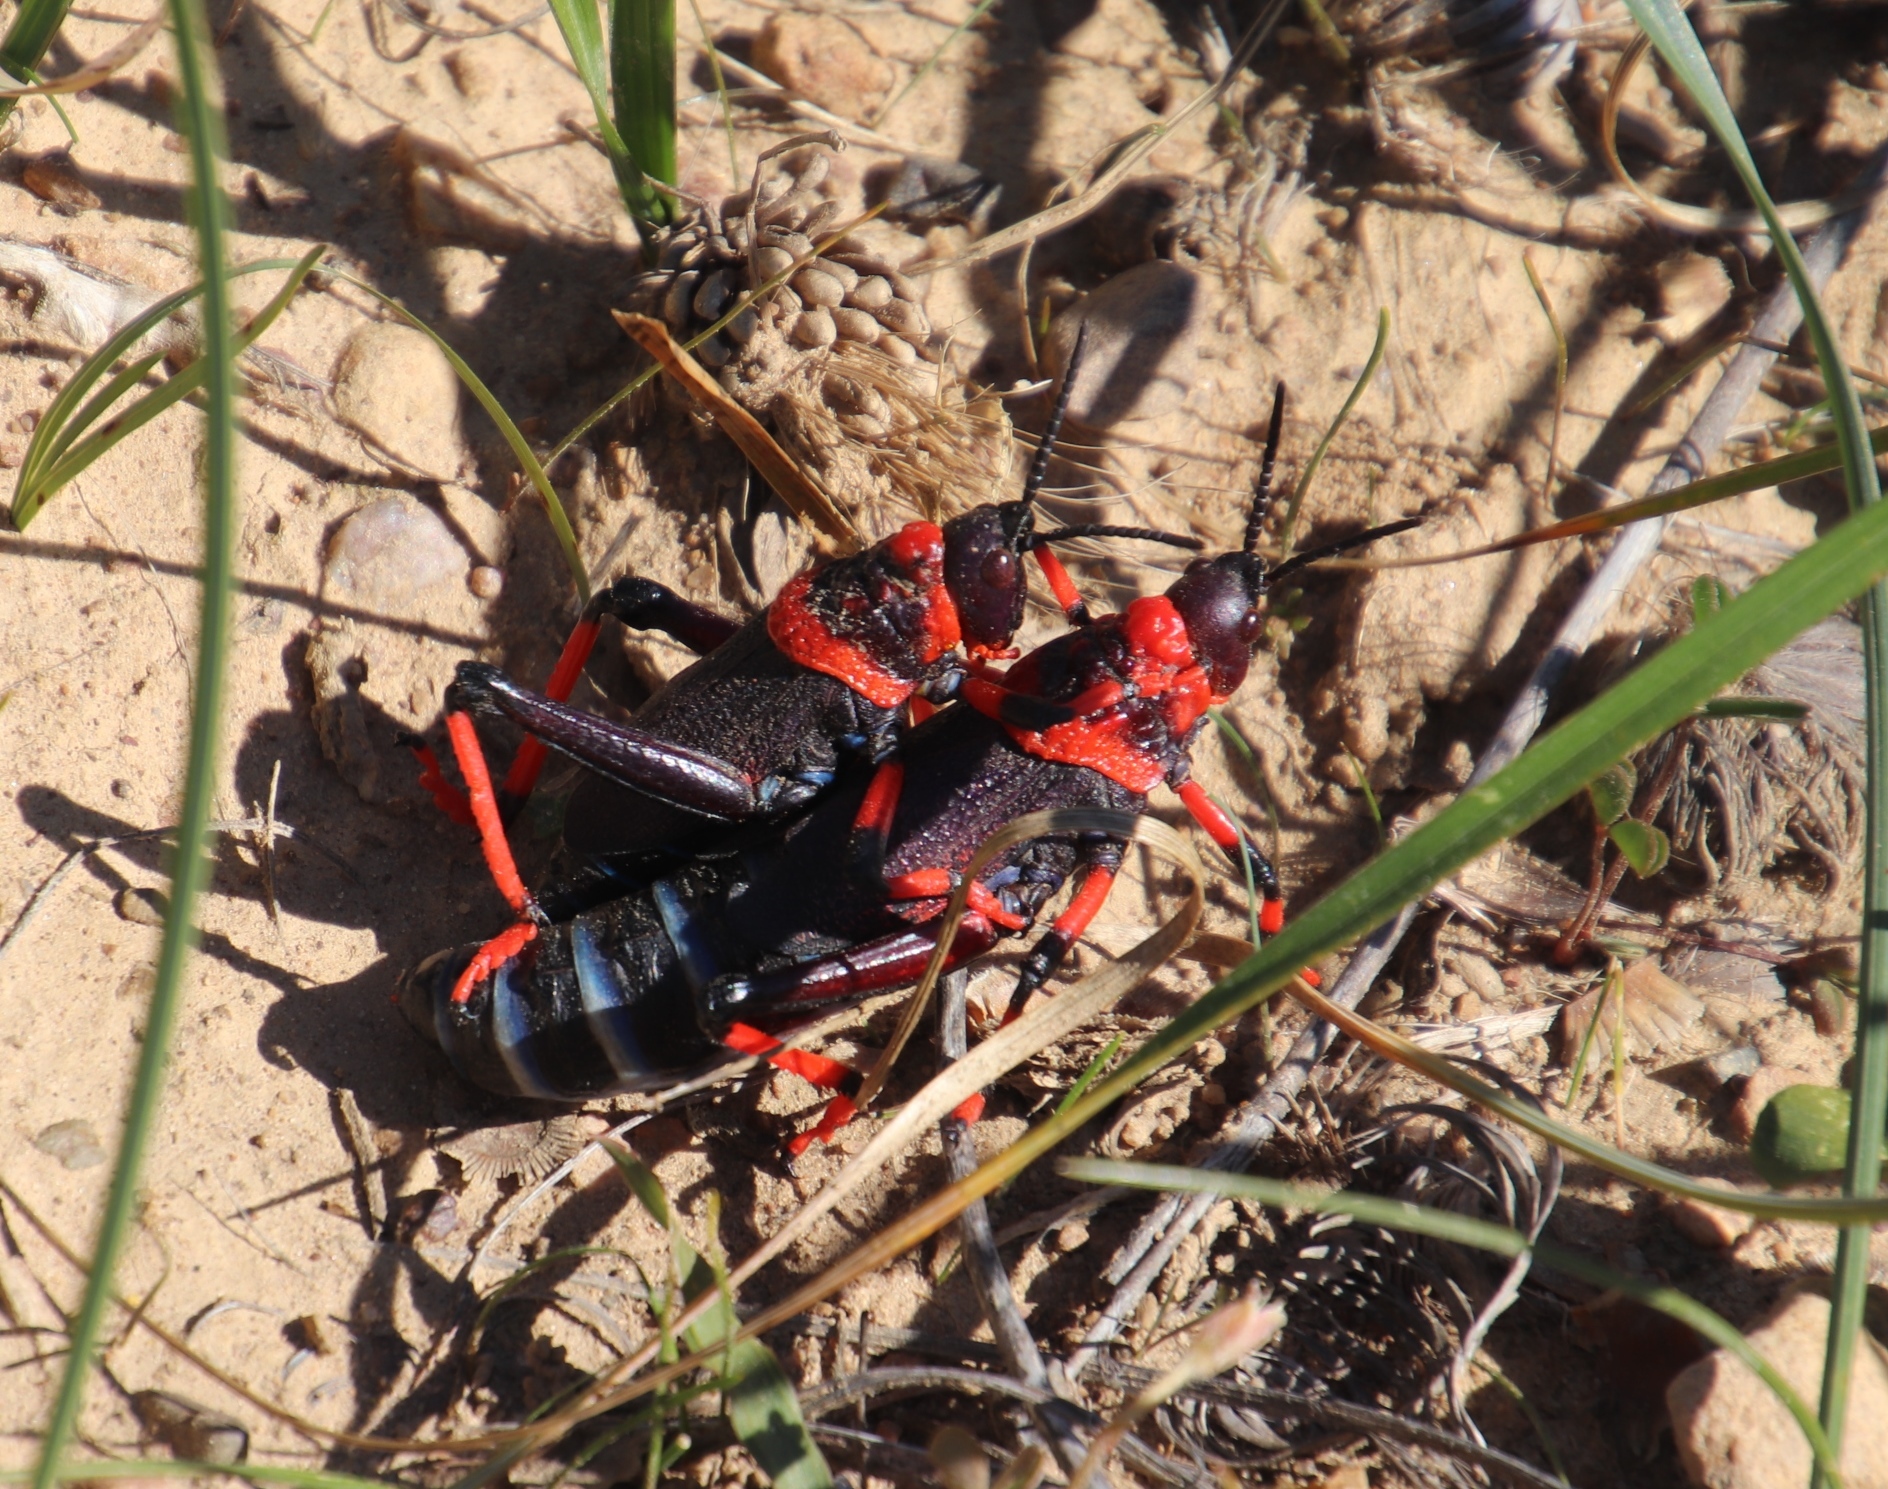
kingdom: Animalia
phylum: Arthropoda
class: Insecta
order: Orthoptera
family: Pyrgomorphidae
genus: Dictyophorus
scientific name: Dictyophorus spumans
